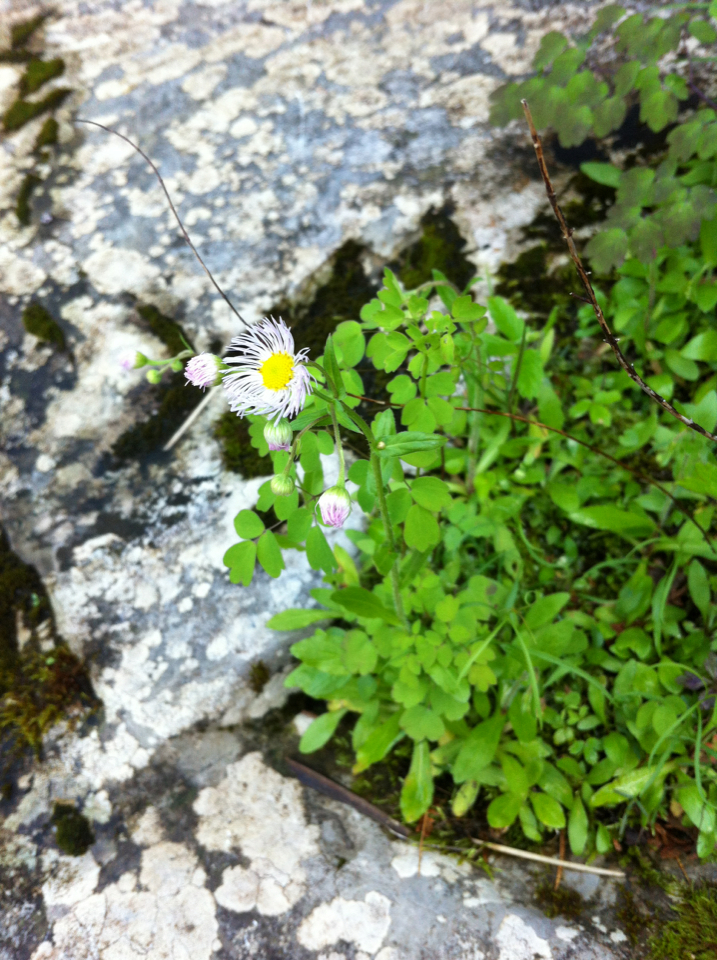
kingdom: Plantae
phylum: Tracheophyta
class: Magnoliopsida
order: Asterales
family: Asteraceae
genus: Erigeron
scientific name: Erigeron philadelphicus
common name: Robin's-plantain
